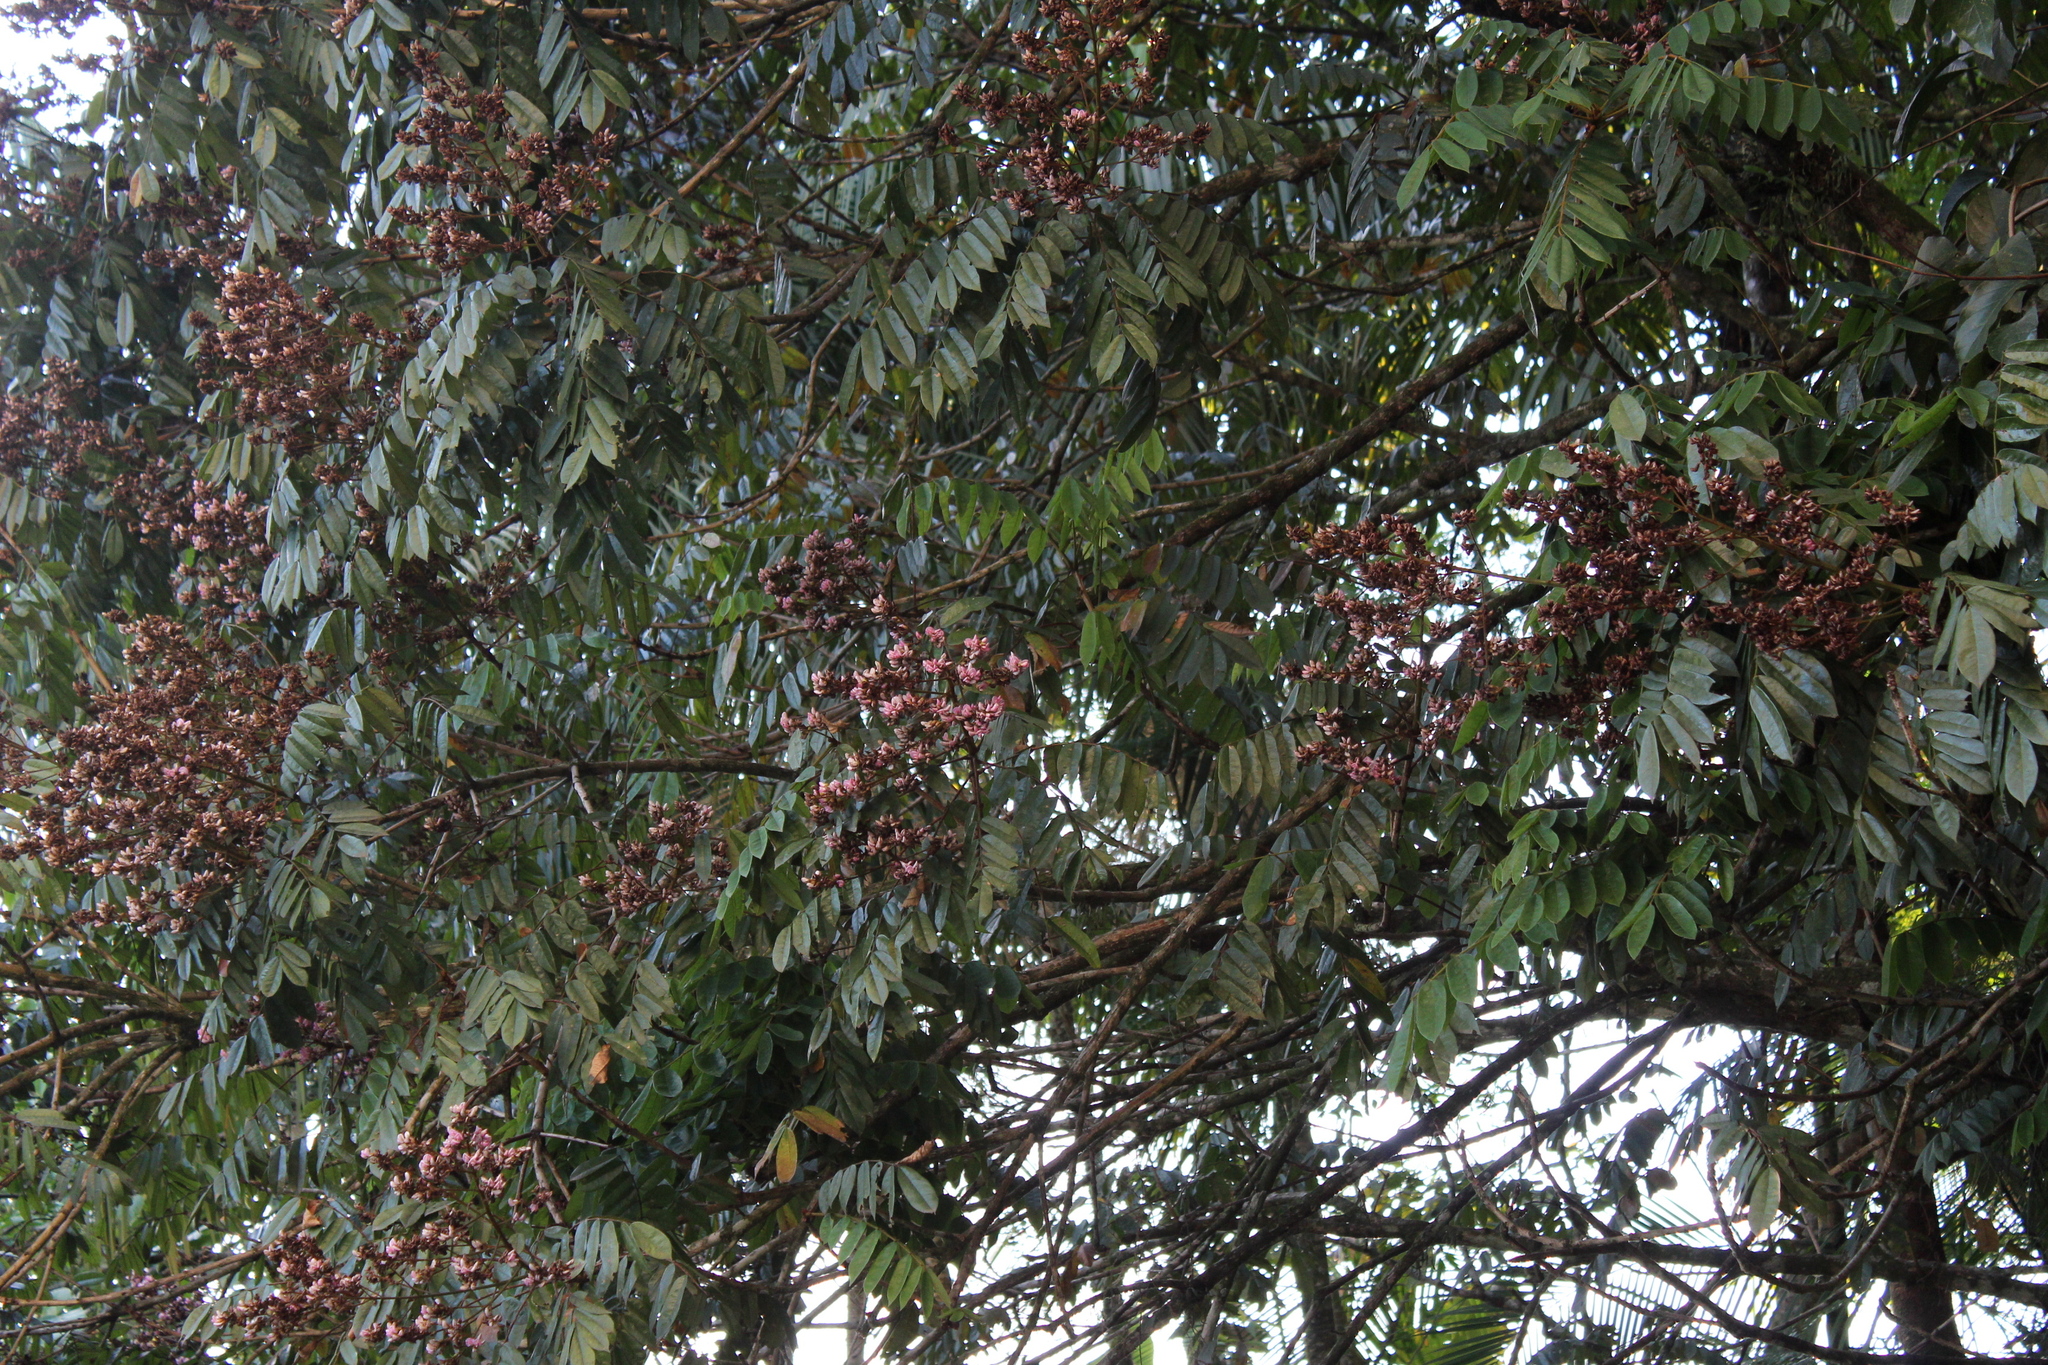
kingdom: Plantae
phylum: Tracheophyta
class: Magnoliopsida
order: Fabales
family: Fabaceae
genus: Andira
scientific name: Andira fraxinifolia
